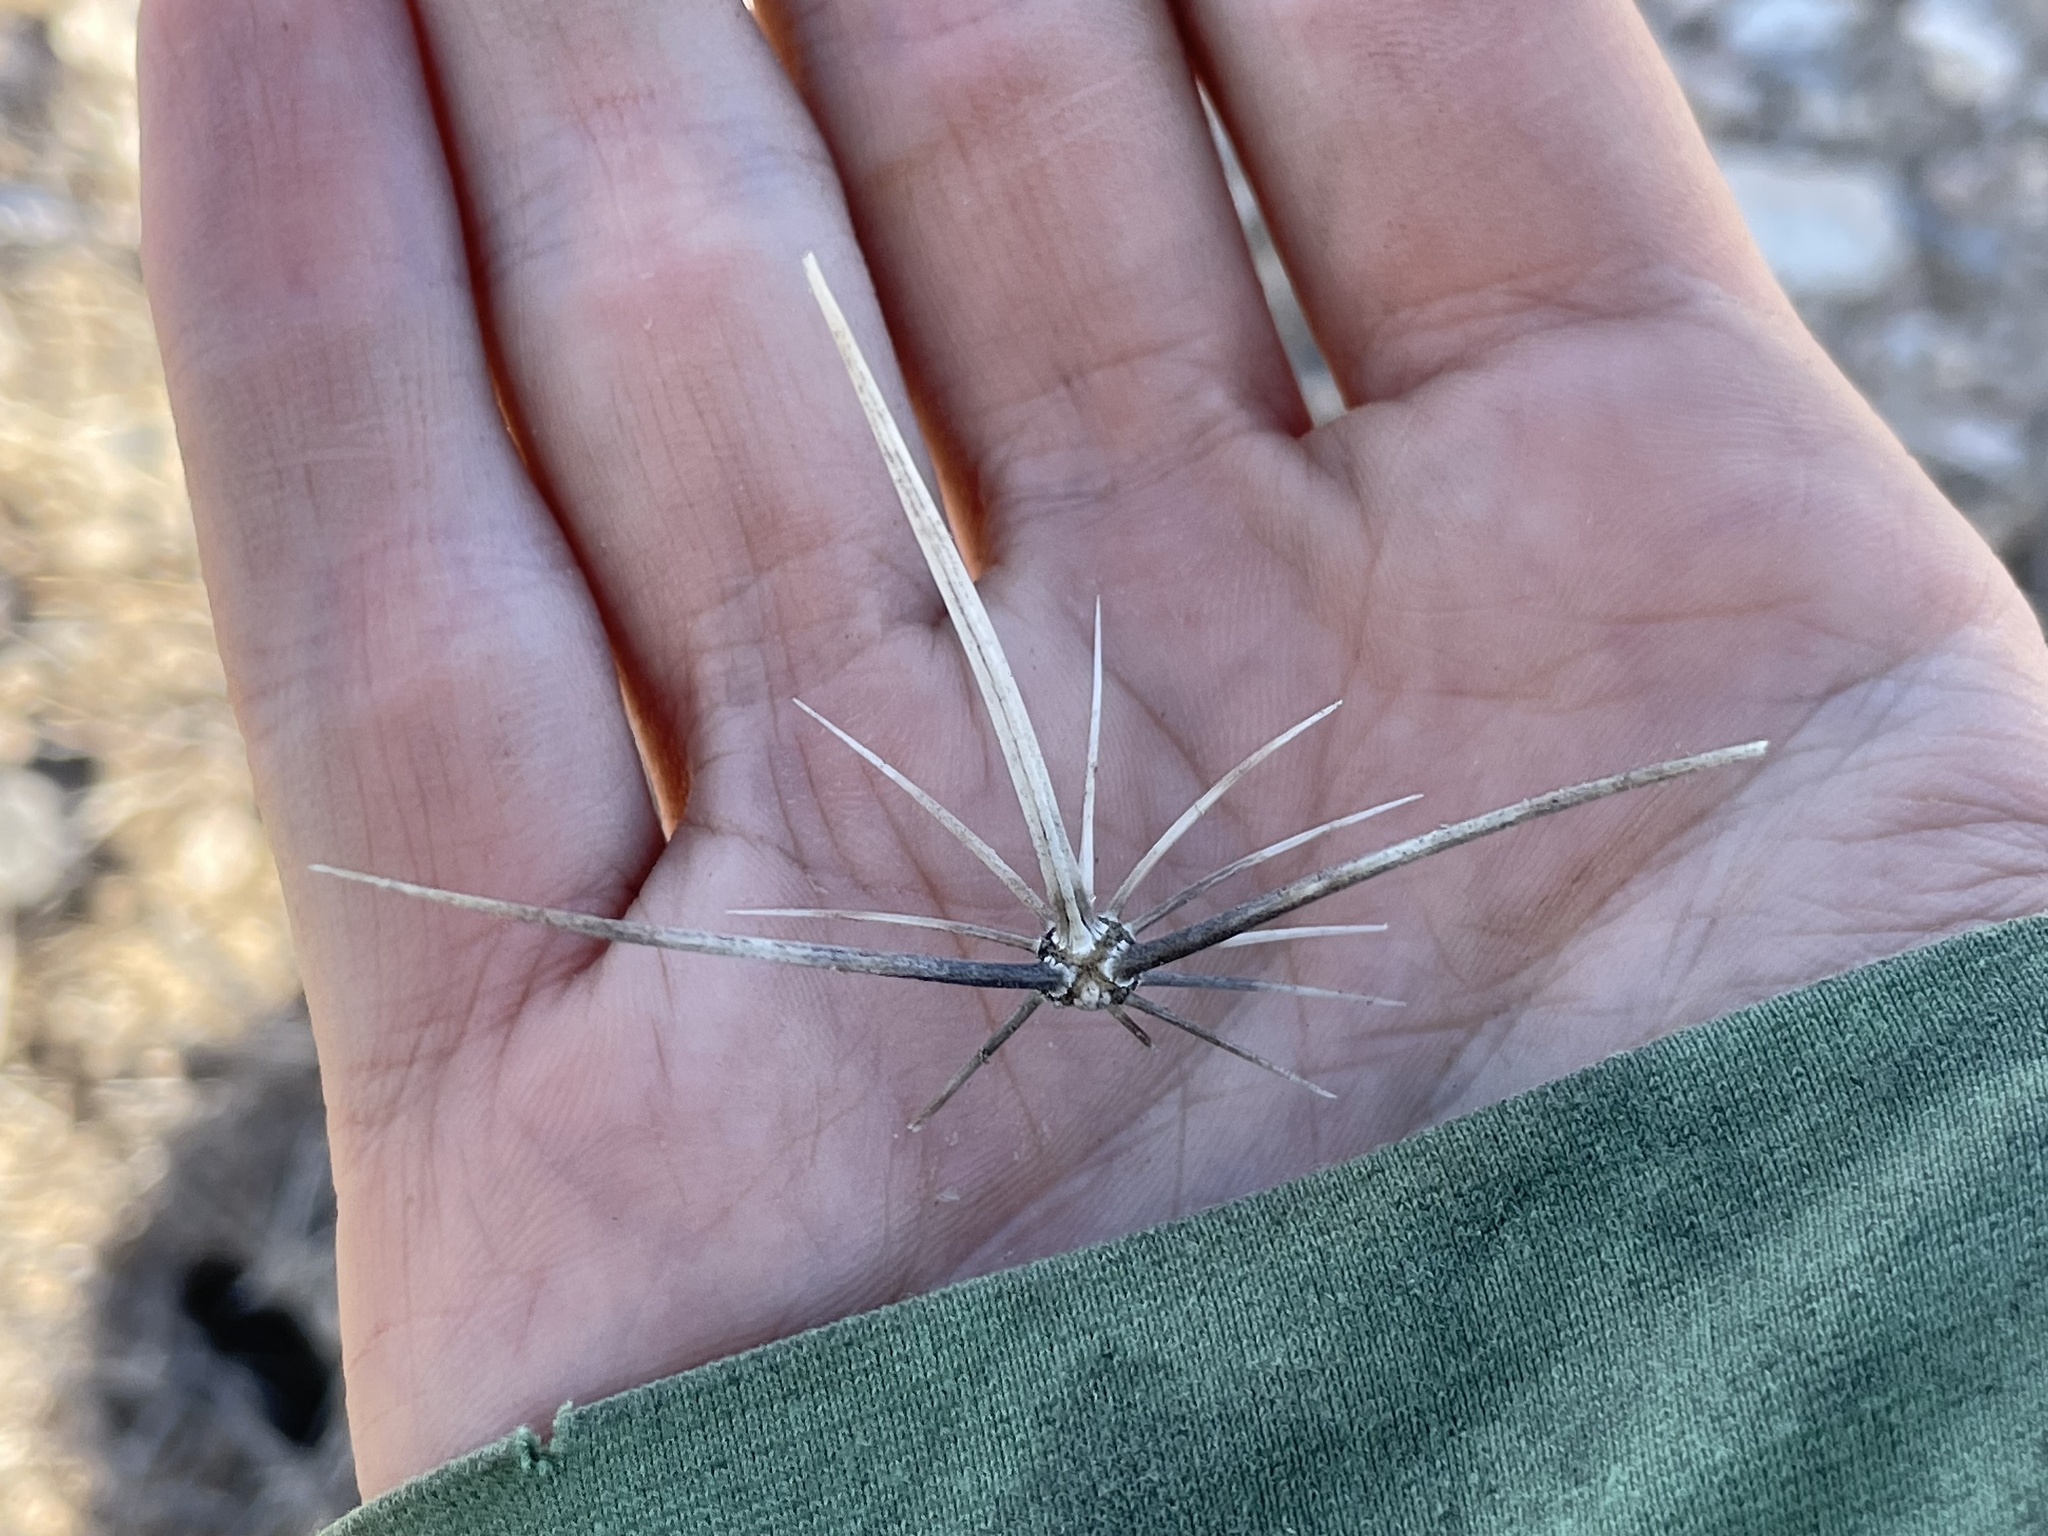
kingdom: Plantae
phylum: Tracheophyta
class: Magnoliopsida
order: Caryophyllales
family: Cactaceae
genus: Echinocereus
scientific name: Echinocereus engelmannii
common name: Engelmann's hedgehog cactus
